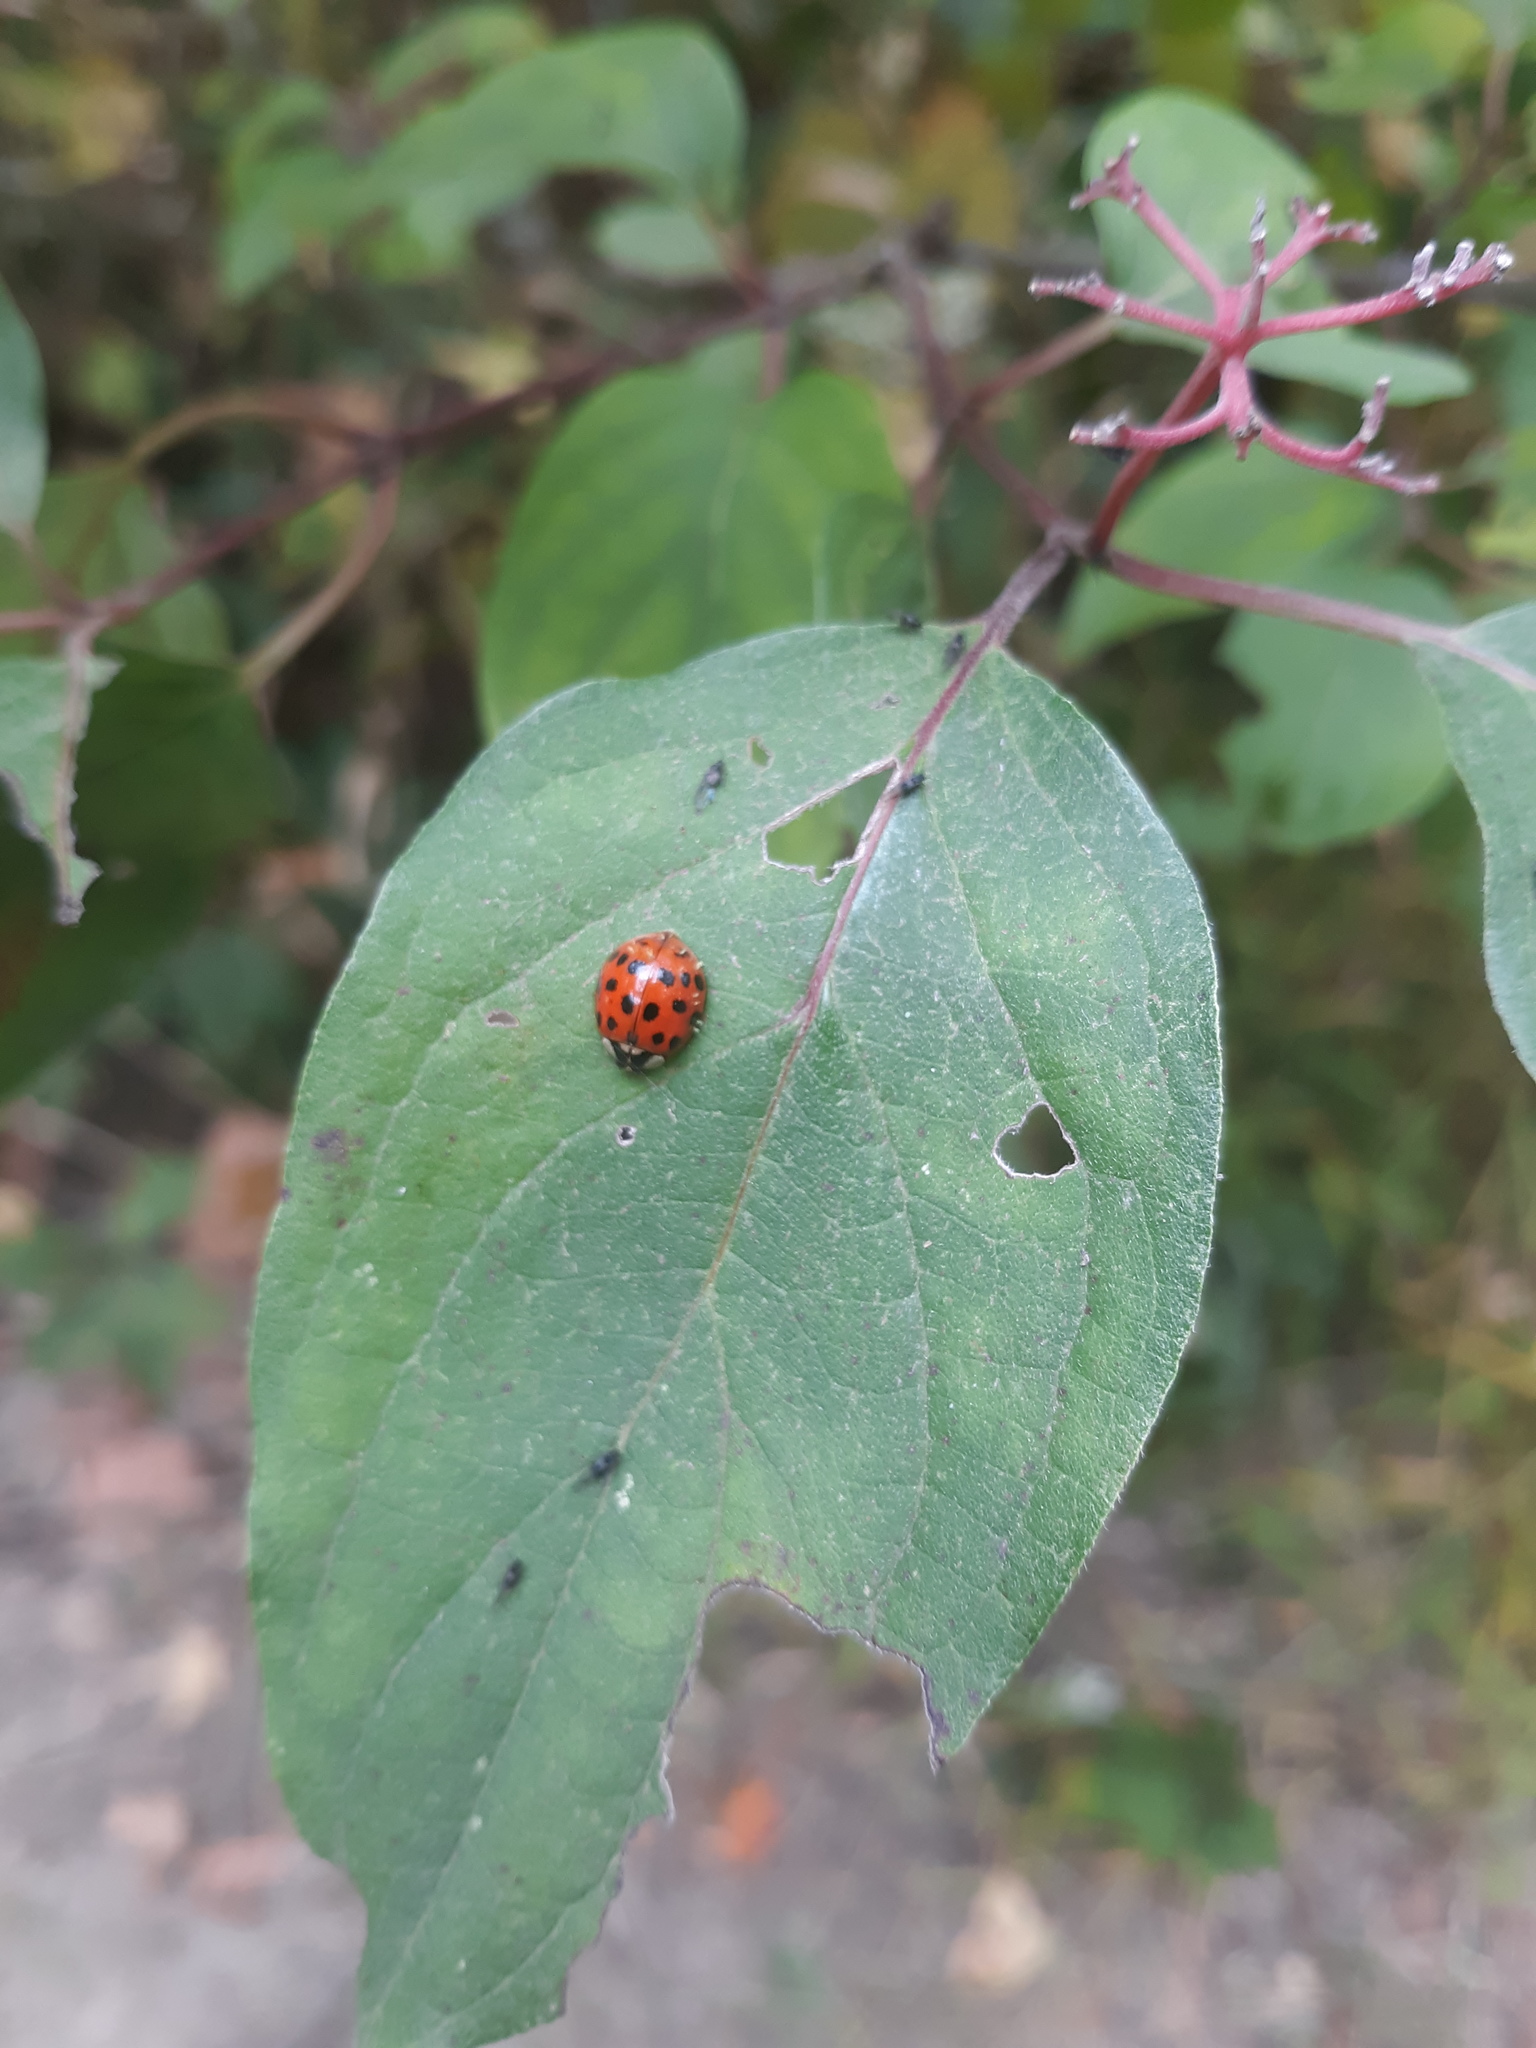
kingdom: Animalia
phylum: Arthropoda
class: Insecta
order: Coleoptera
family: Coccinellidae
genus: Harmonia
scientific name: Harmonia axyridis
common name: Harlequin ladybird
